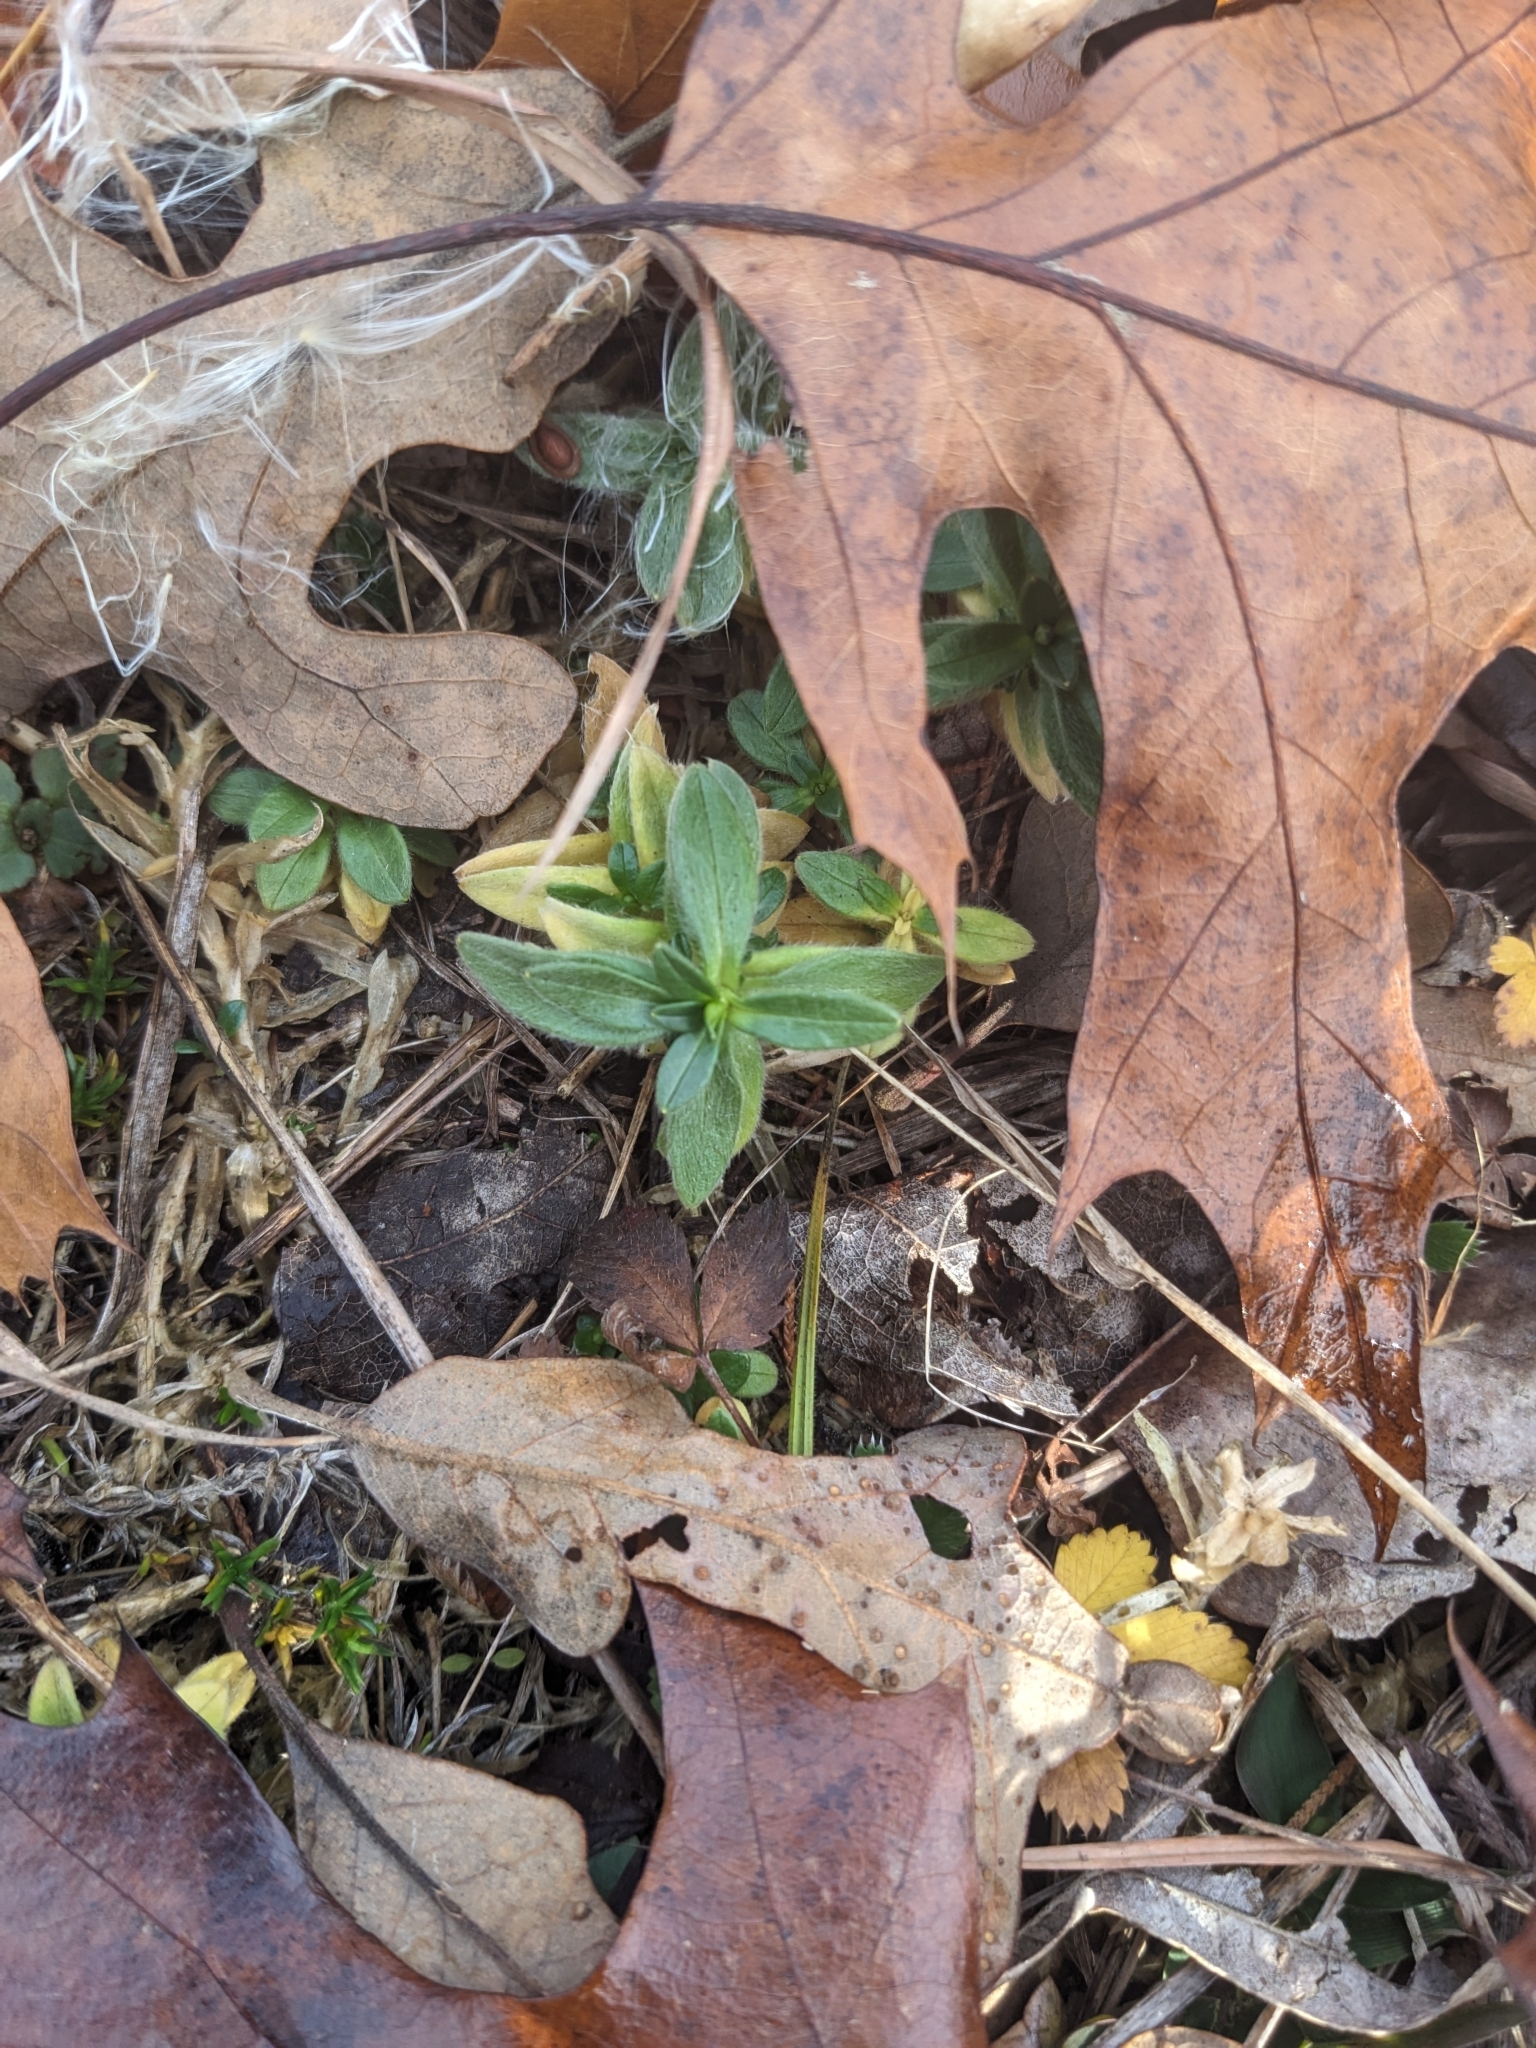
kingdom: Plantae
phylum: Tracheophyta
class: Magnoliopsida
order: Caryophyllales
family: Caryophyllaceae
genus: Cerastium
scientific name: Cerastium velutinum
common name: Barren chickweed
